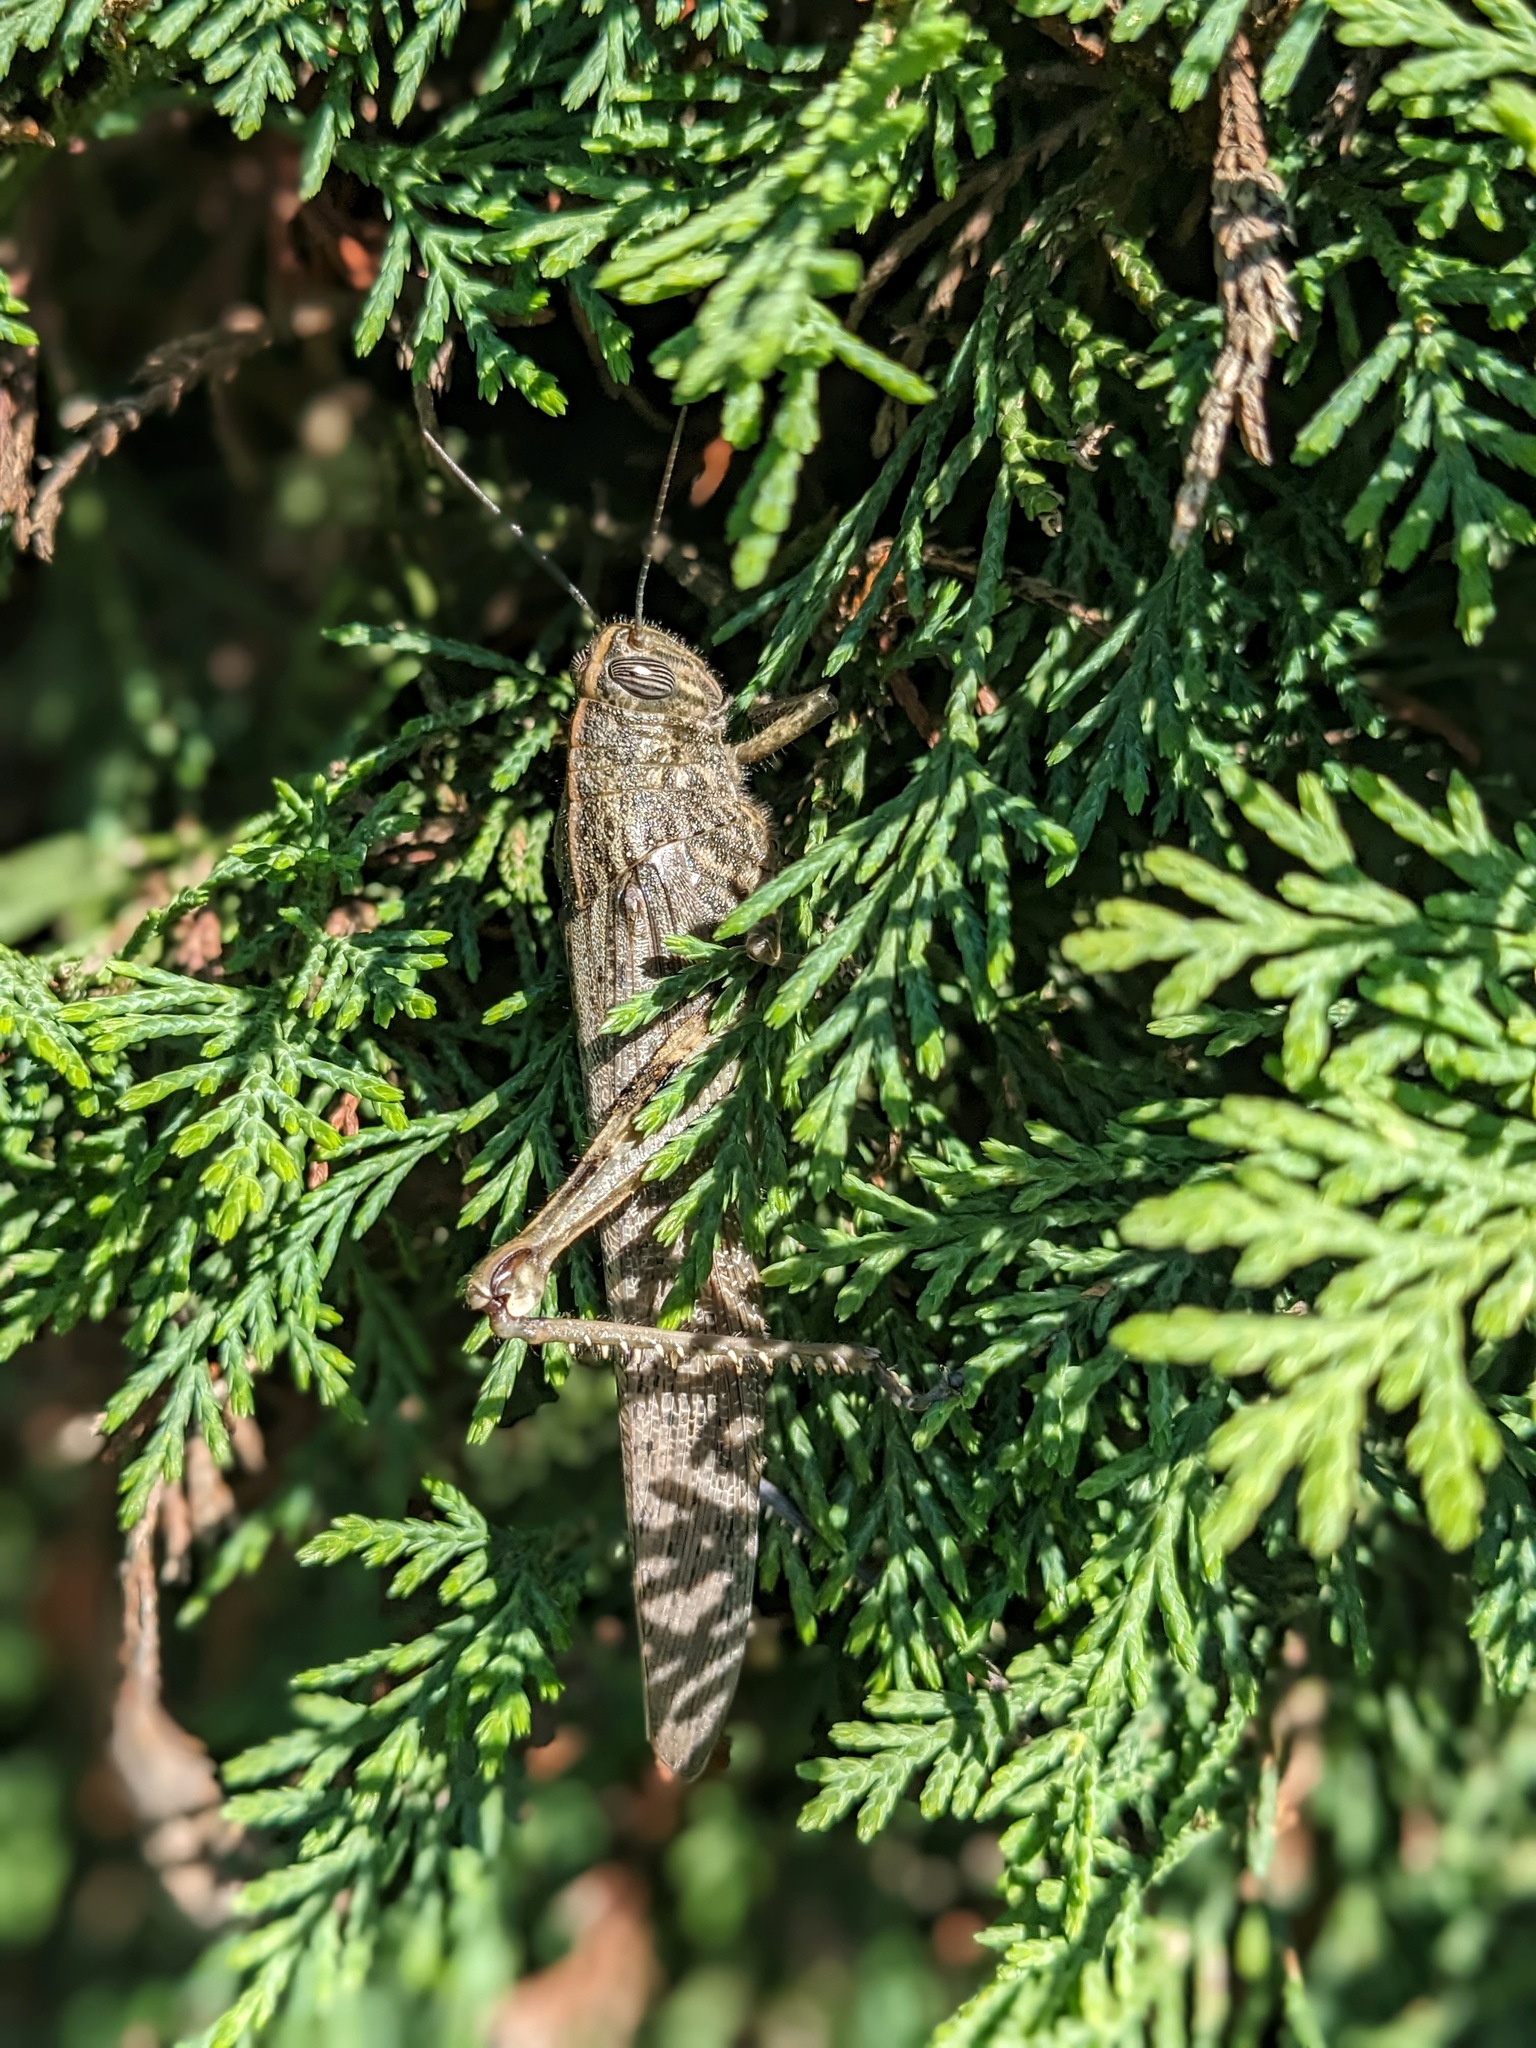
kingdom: Animalia
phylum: Arthropoda
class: Insecta
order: Orthoptera
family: Acrididae
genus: Anacridium
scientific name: Anacridium aegyptium
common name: Egyptian grasshopper
